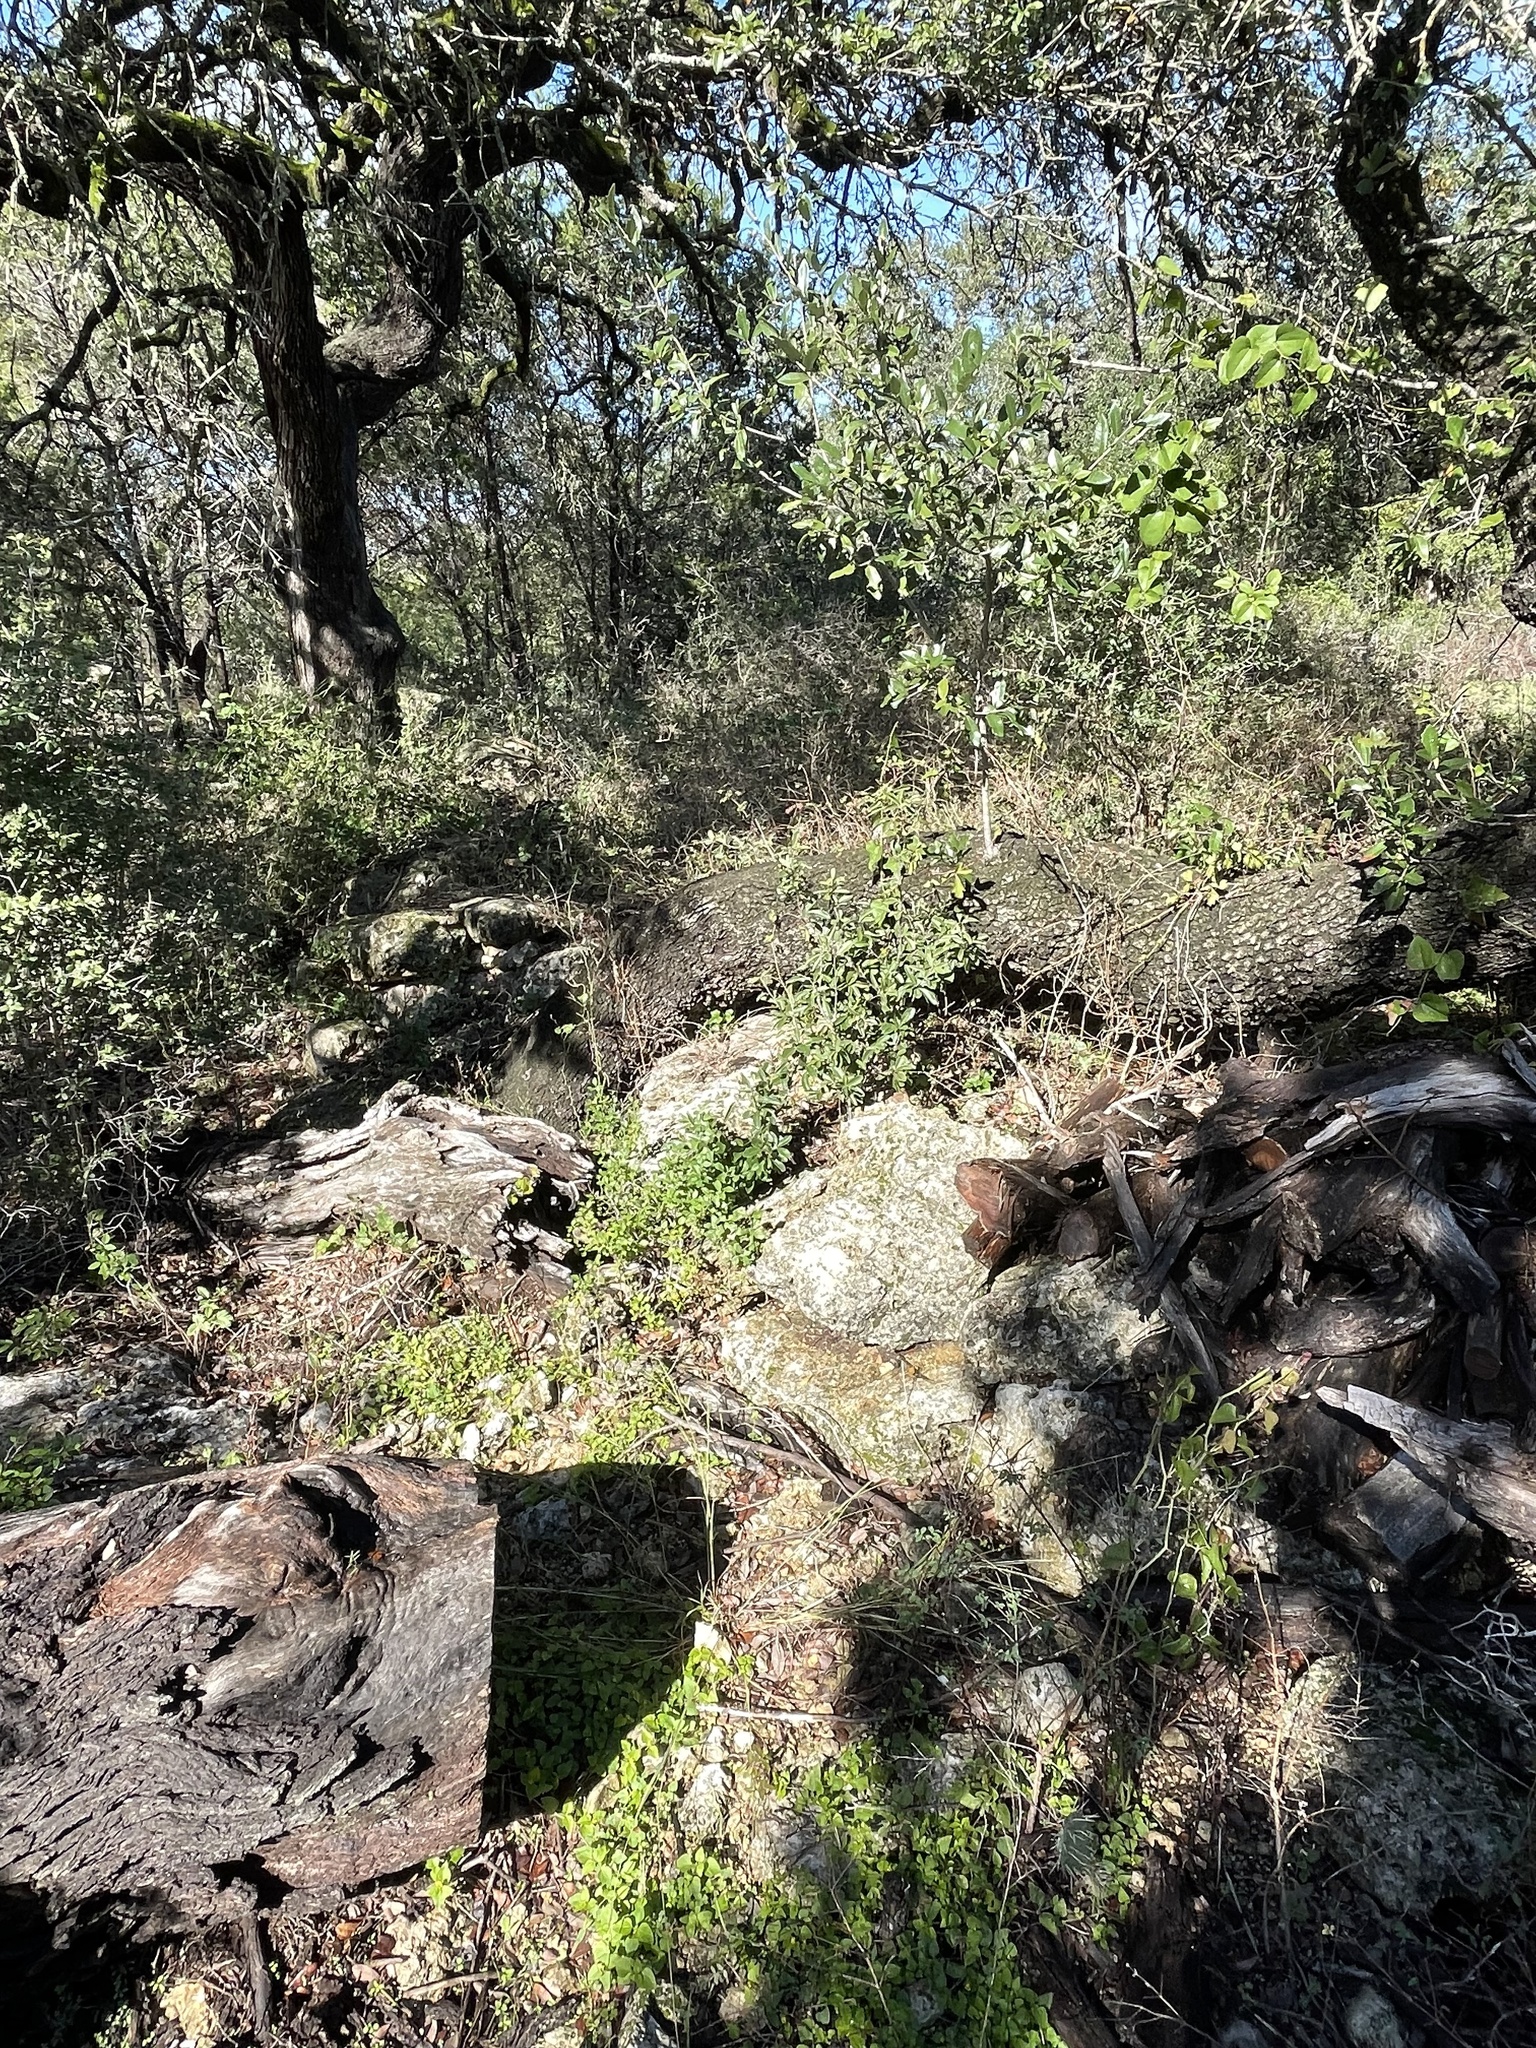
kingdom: Plantae
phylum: Tracheophyta
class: Magnoliopsida
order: Fagales
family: Fagaceae
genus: Quercus
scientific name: Quercus fusiformis
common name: Texas live oak
